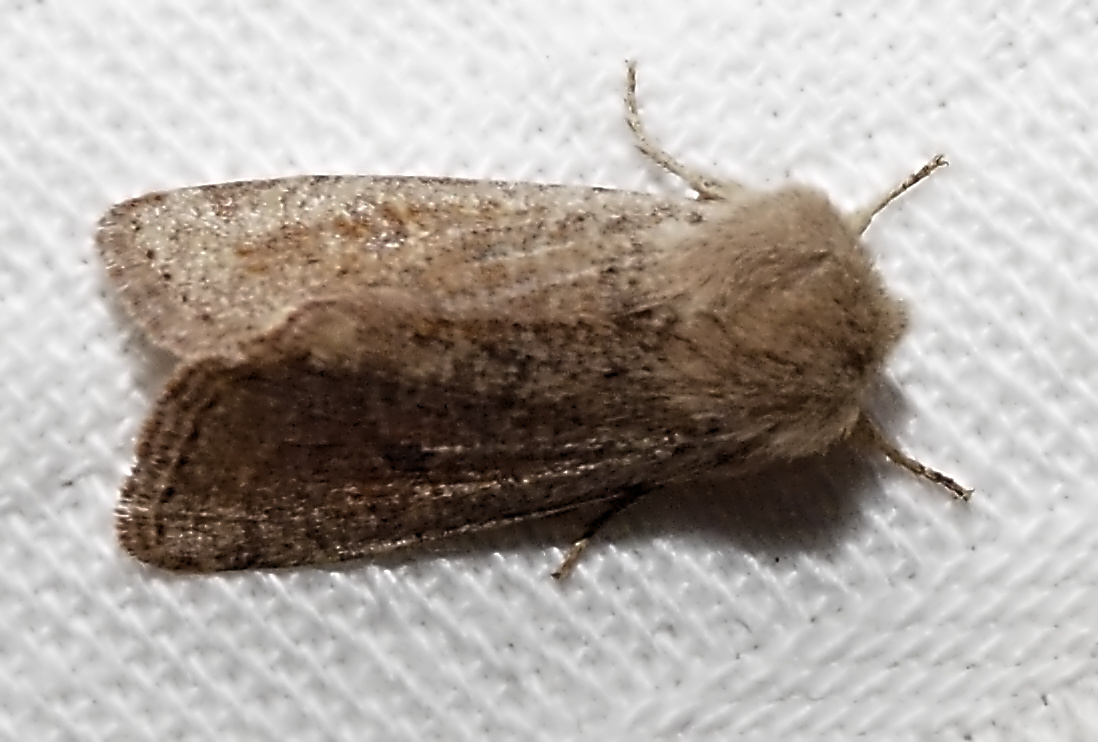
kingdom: Animalia
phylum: Arthropoda
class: Insecta
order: Lepidoptera
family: Noctuidae
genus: Orthosia
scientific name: Orthosia cruda
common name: Small quaker
